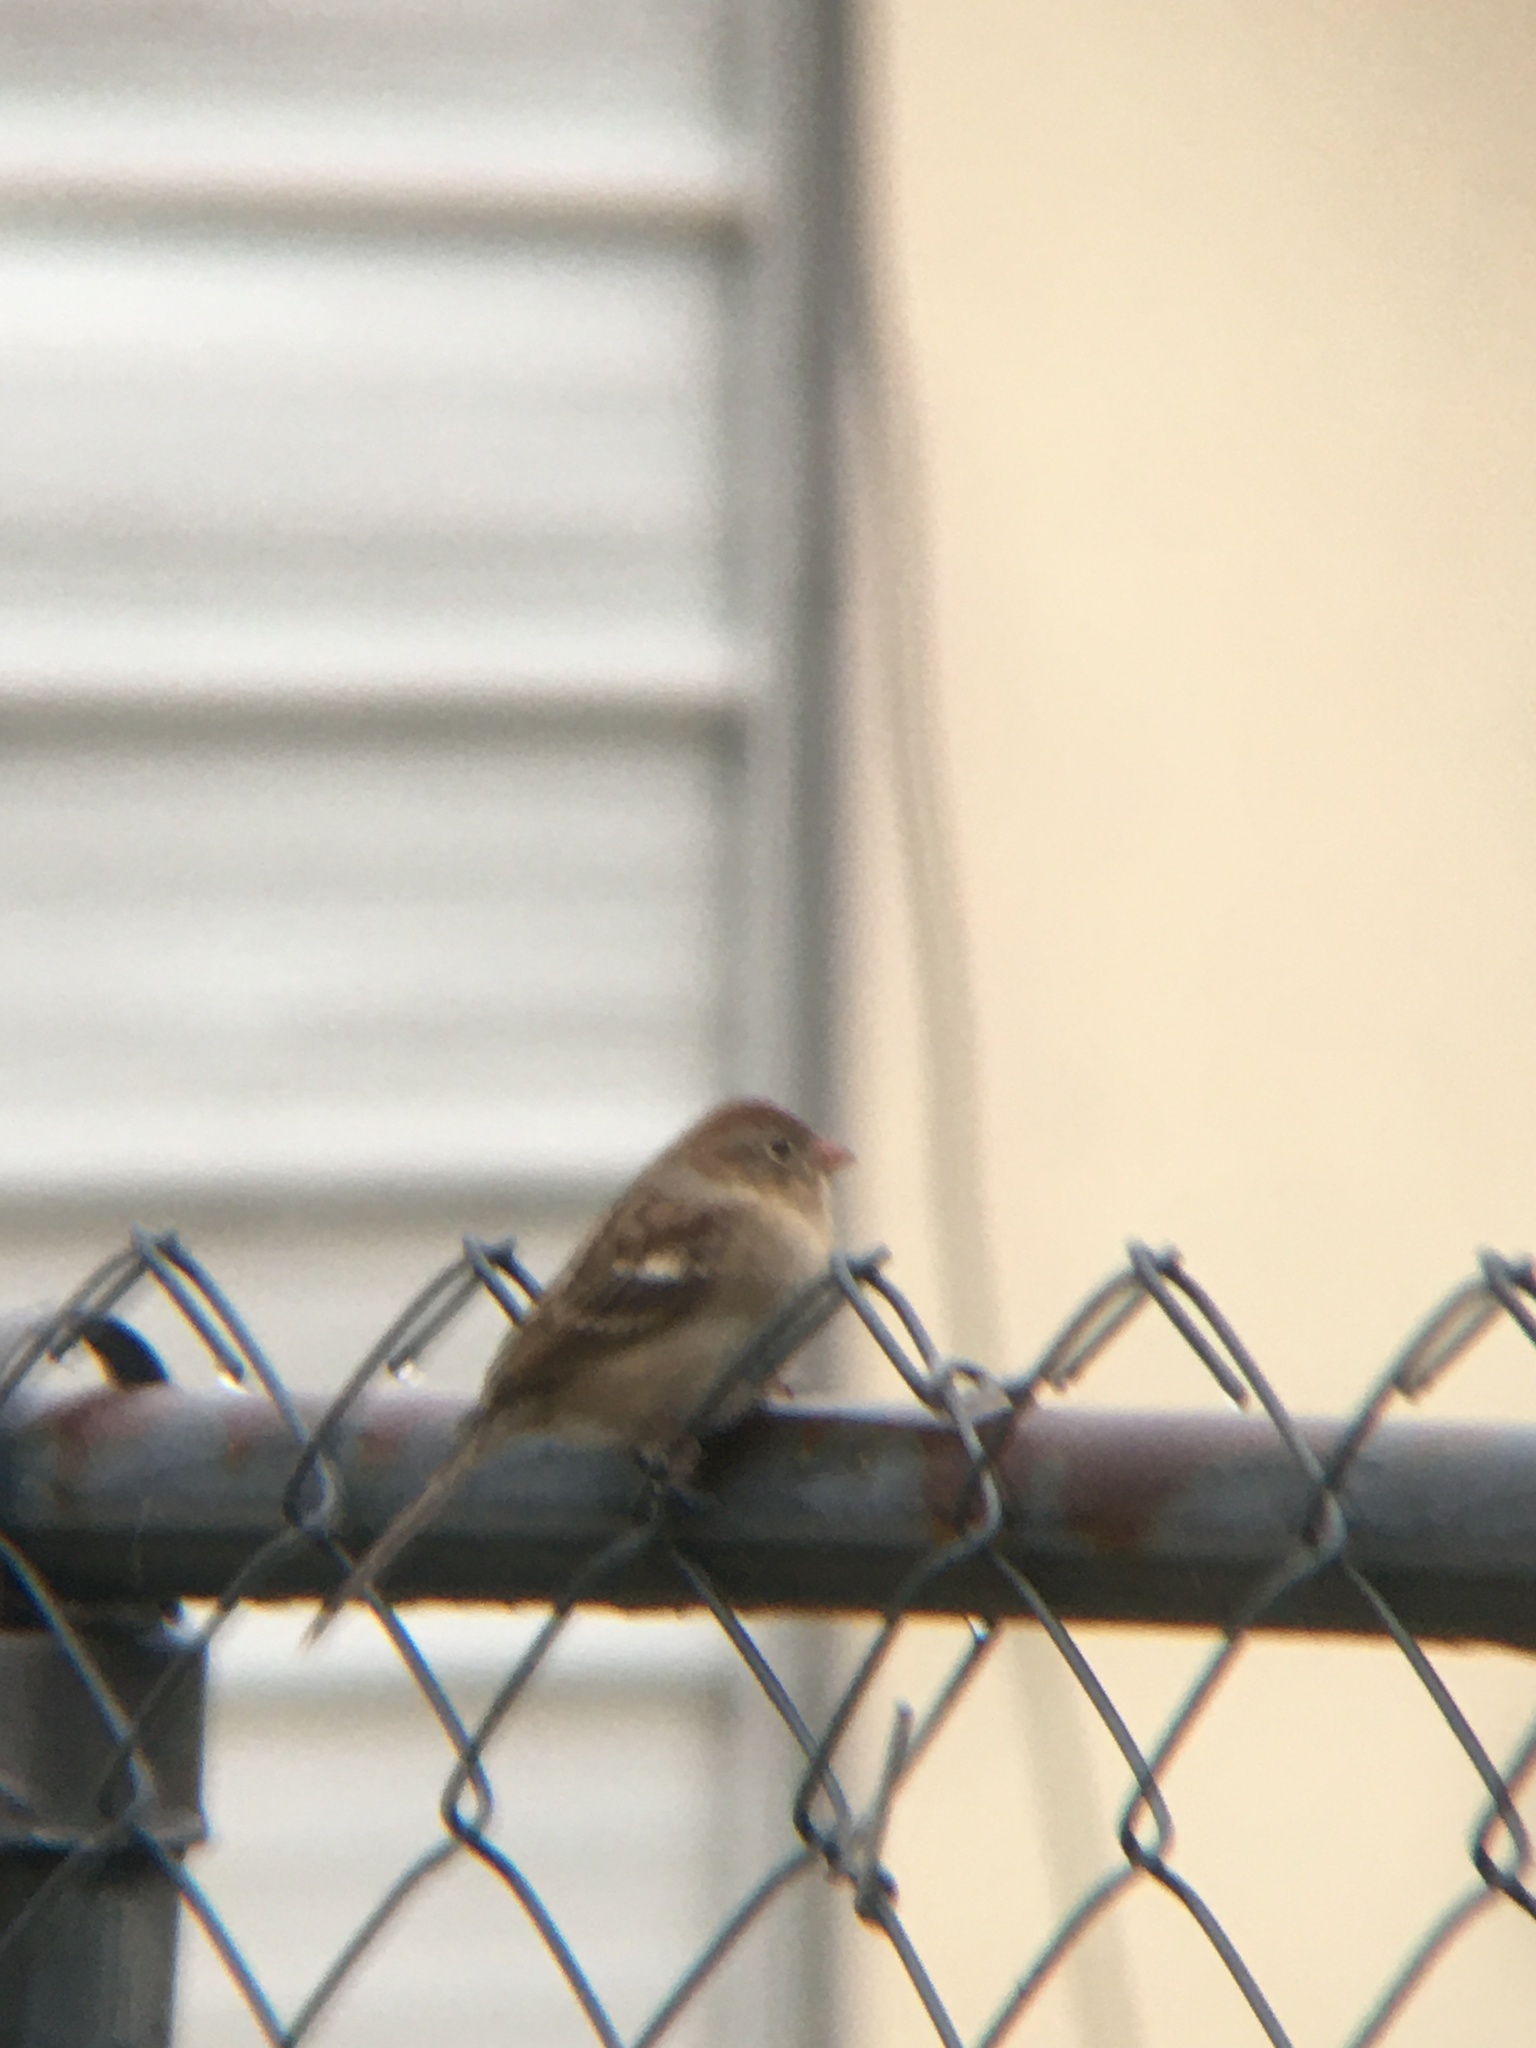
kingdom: Animalia
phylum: Chordata
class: Aves
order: Passeriformes
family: Passerellidae
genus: Spizella
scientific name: Spizella pusilla
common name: Field sparrow
